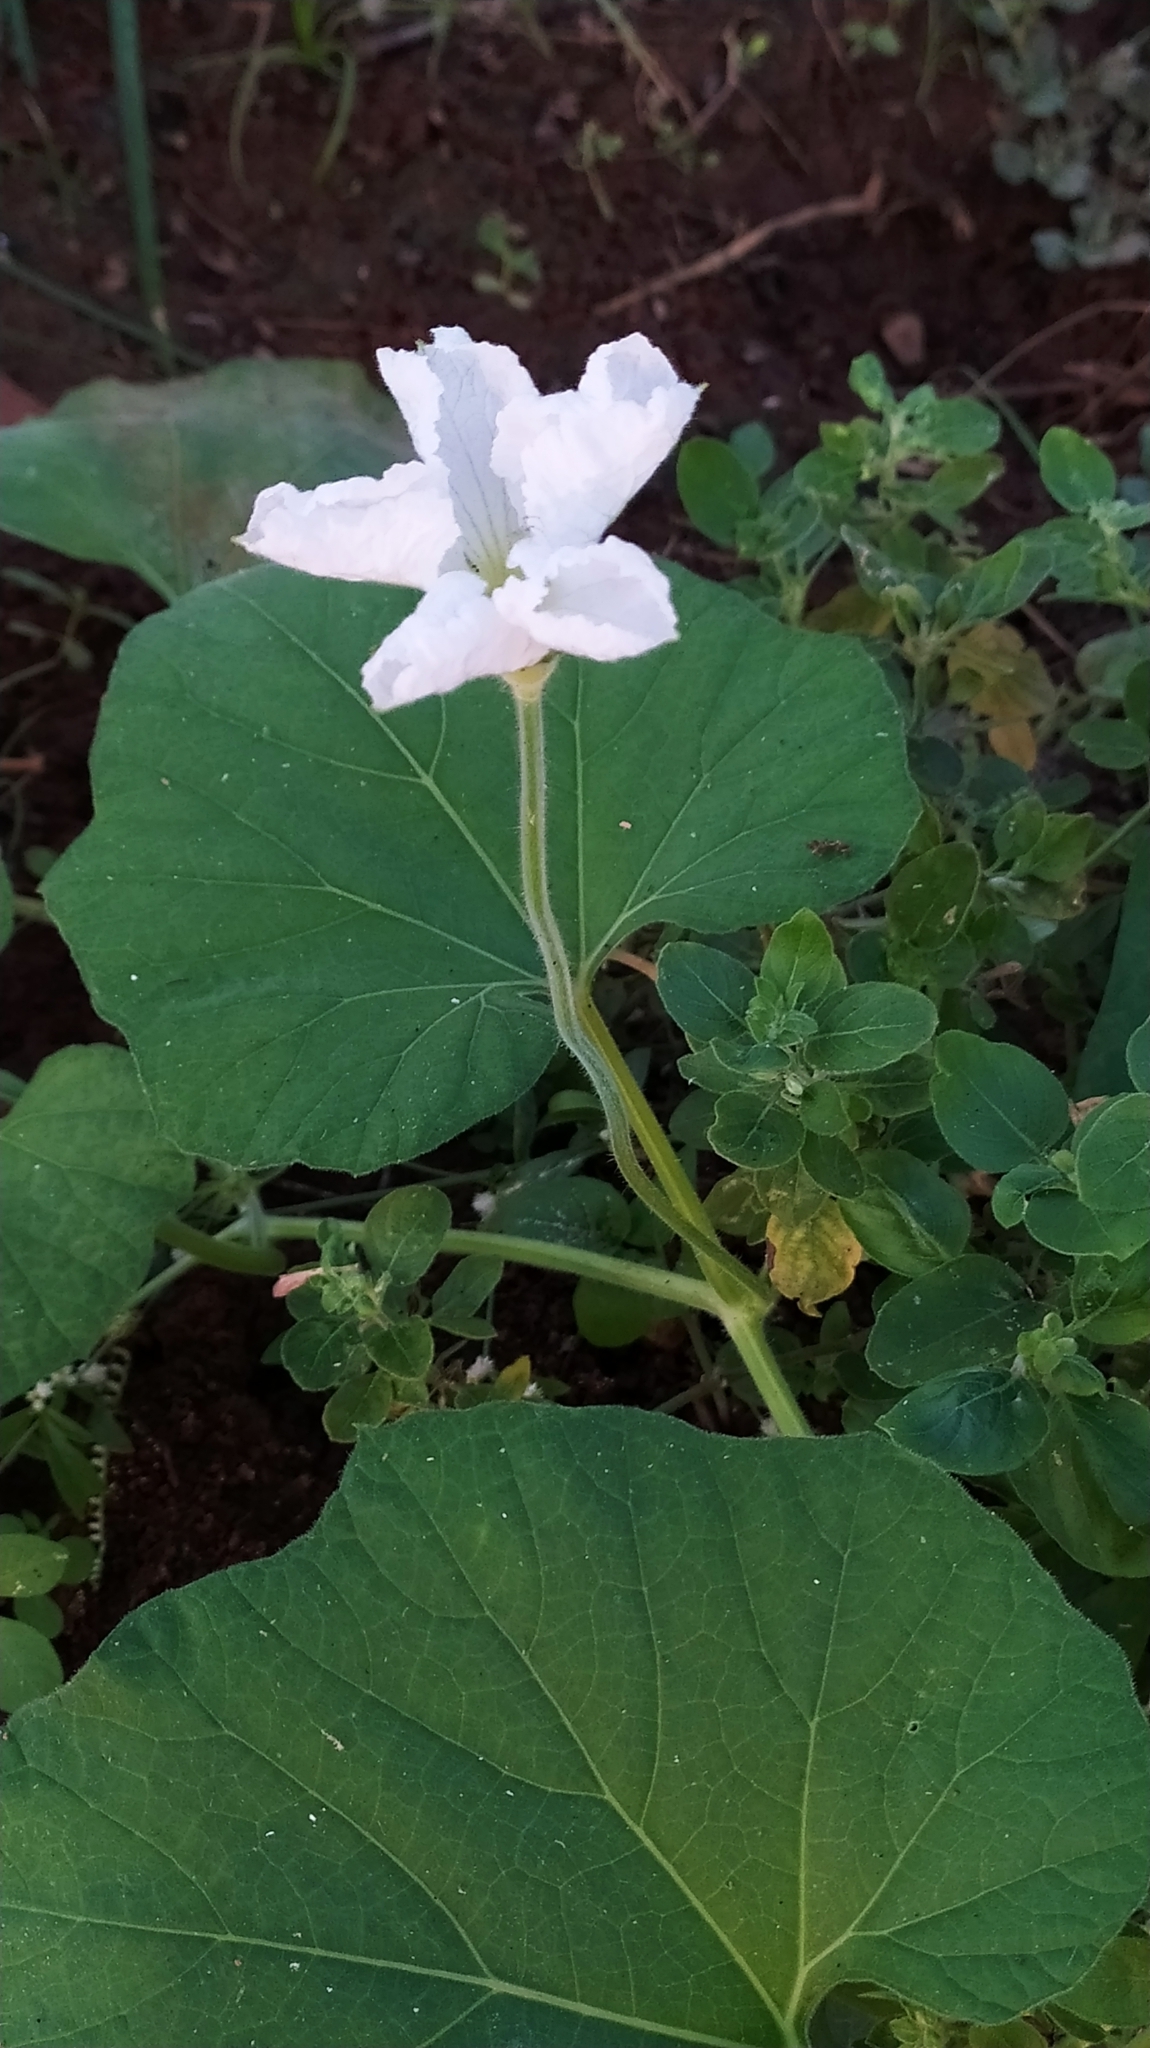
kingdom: Plantae
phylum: Tracheophyta
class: Magnoliopsida
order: Cucurbitales
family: Cucurbitaceae
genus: Lagenaria
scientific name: Lagenaria siceraria
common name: Bottle gourd
